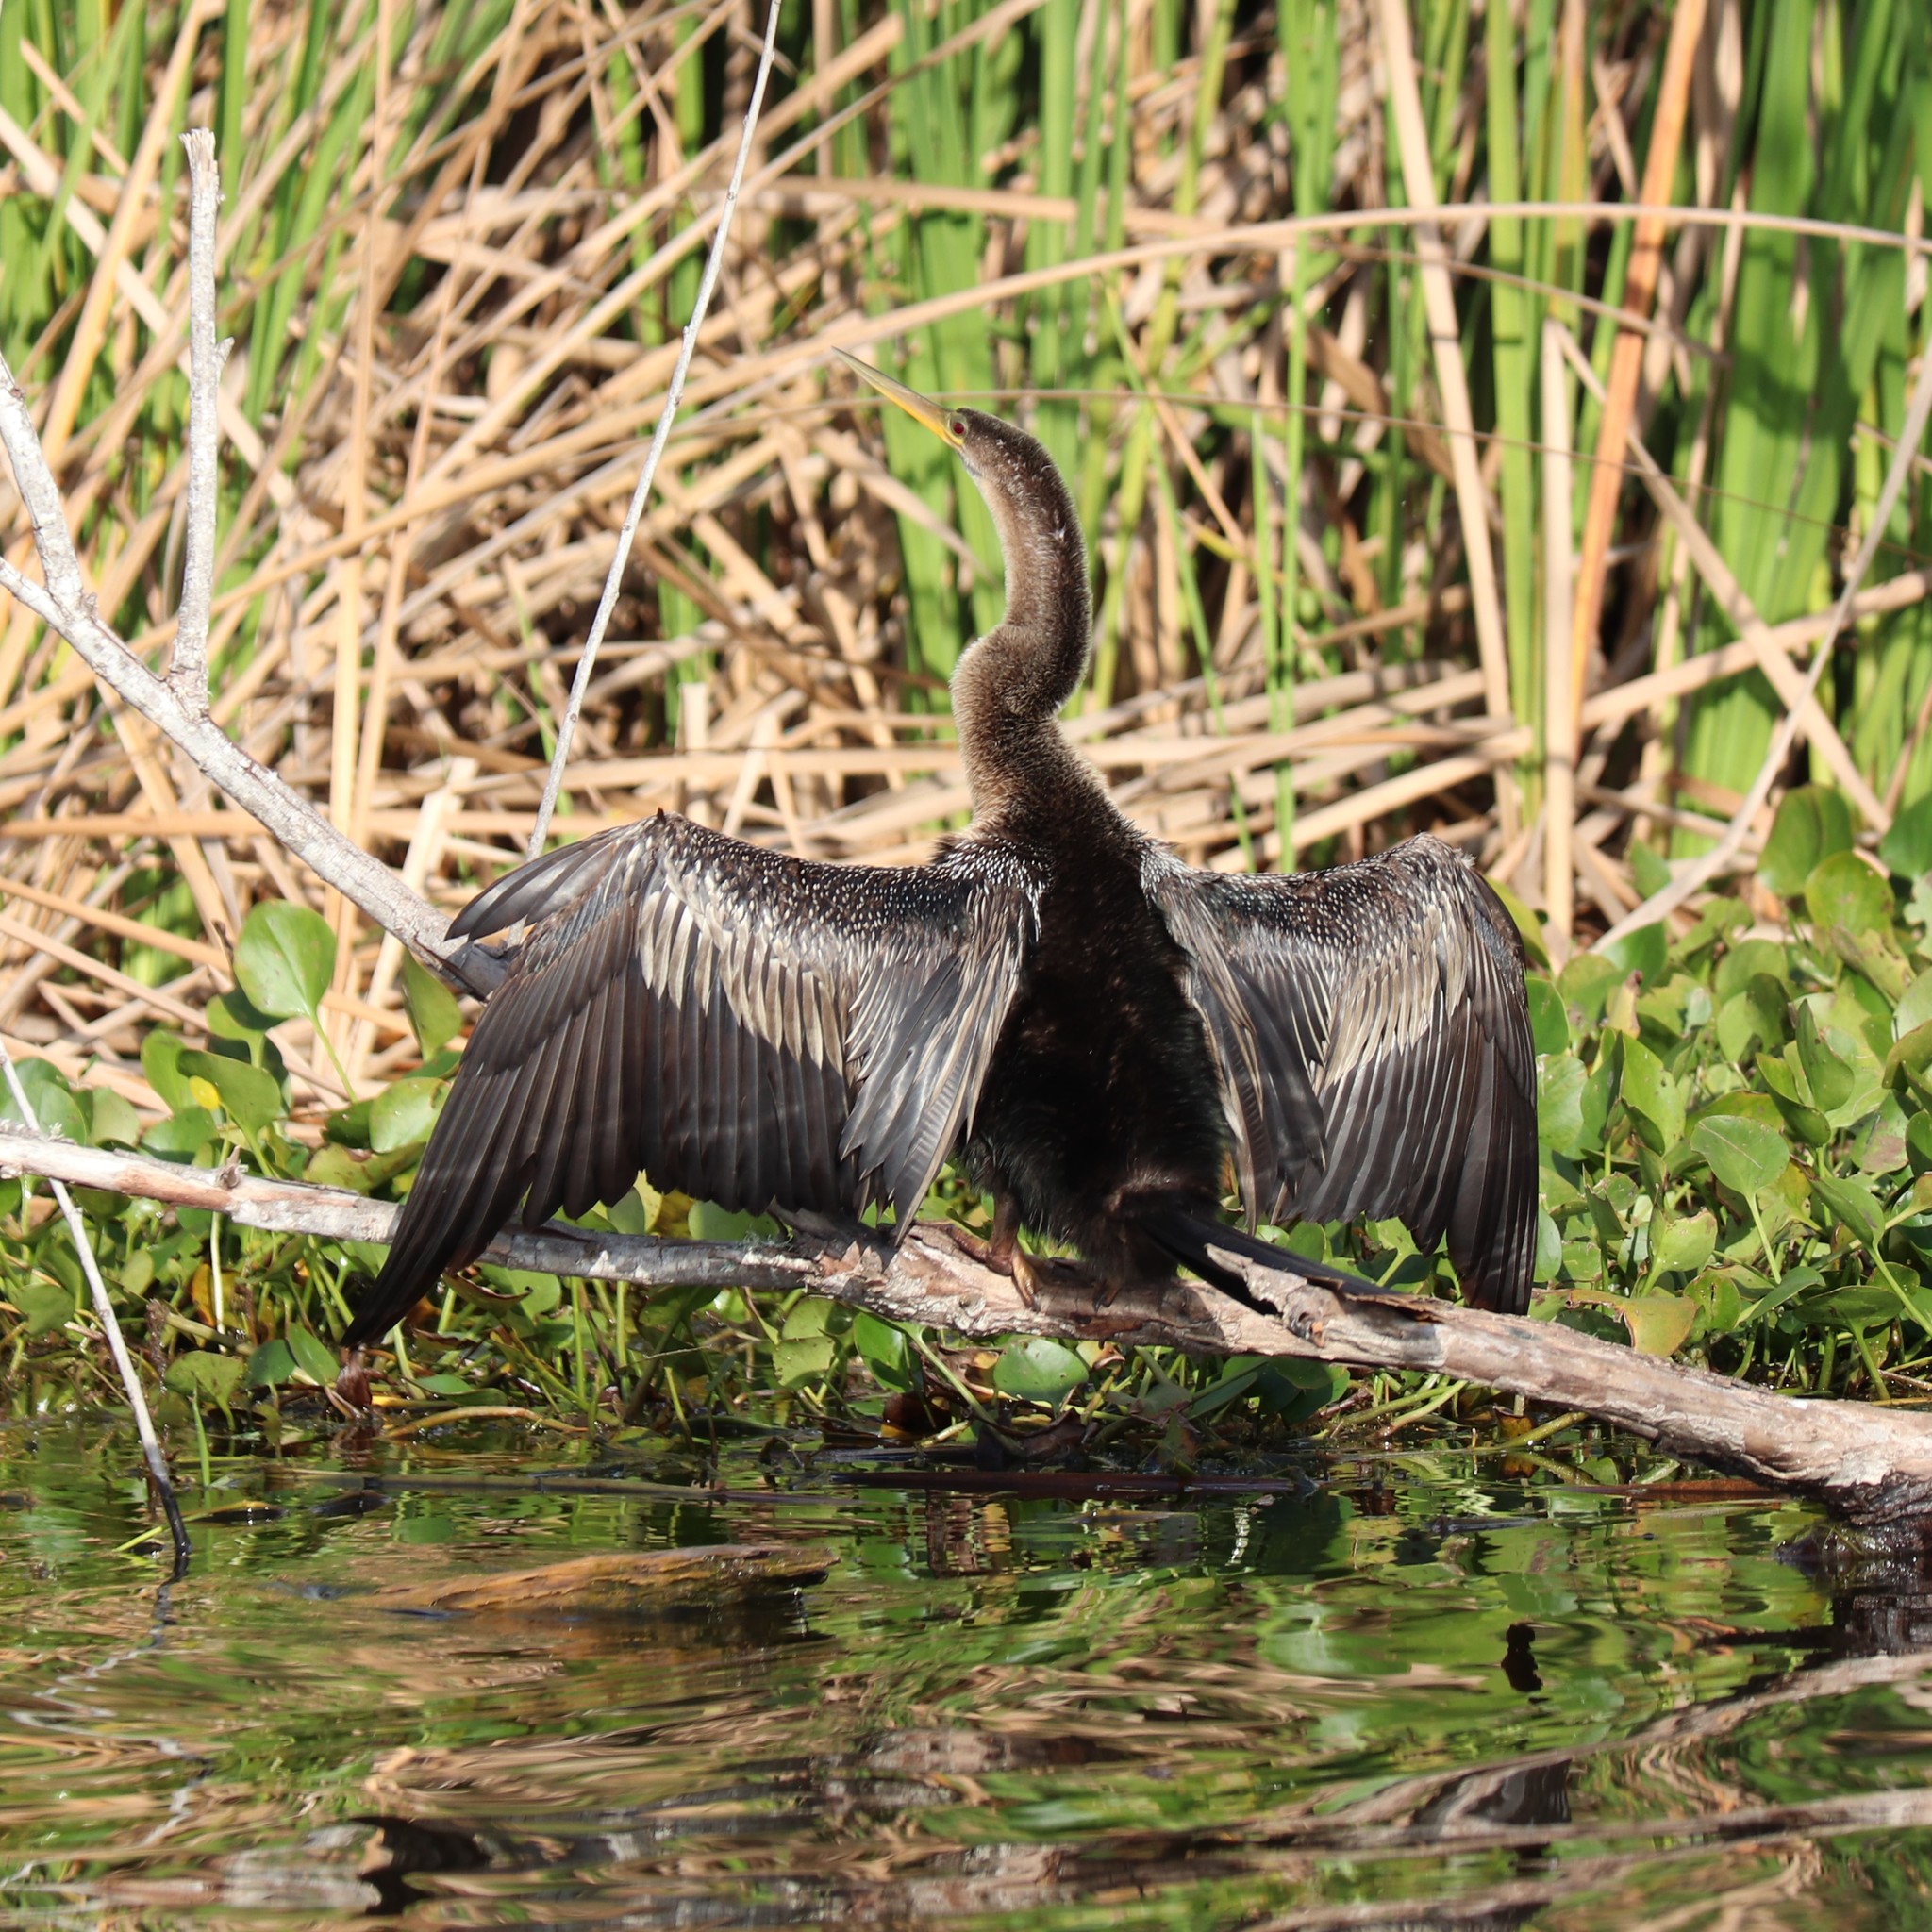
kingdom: Animalia
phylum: Chordata
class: Aves
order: Suliformes
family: Anhingidae
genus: Anhinga
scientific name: Anhinga anhinga
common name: Anhinga
